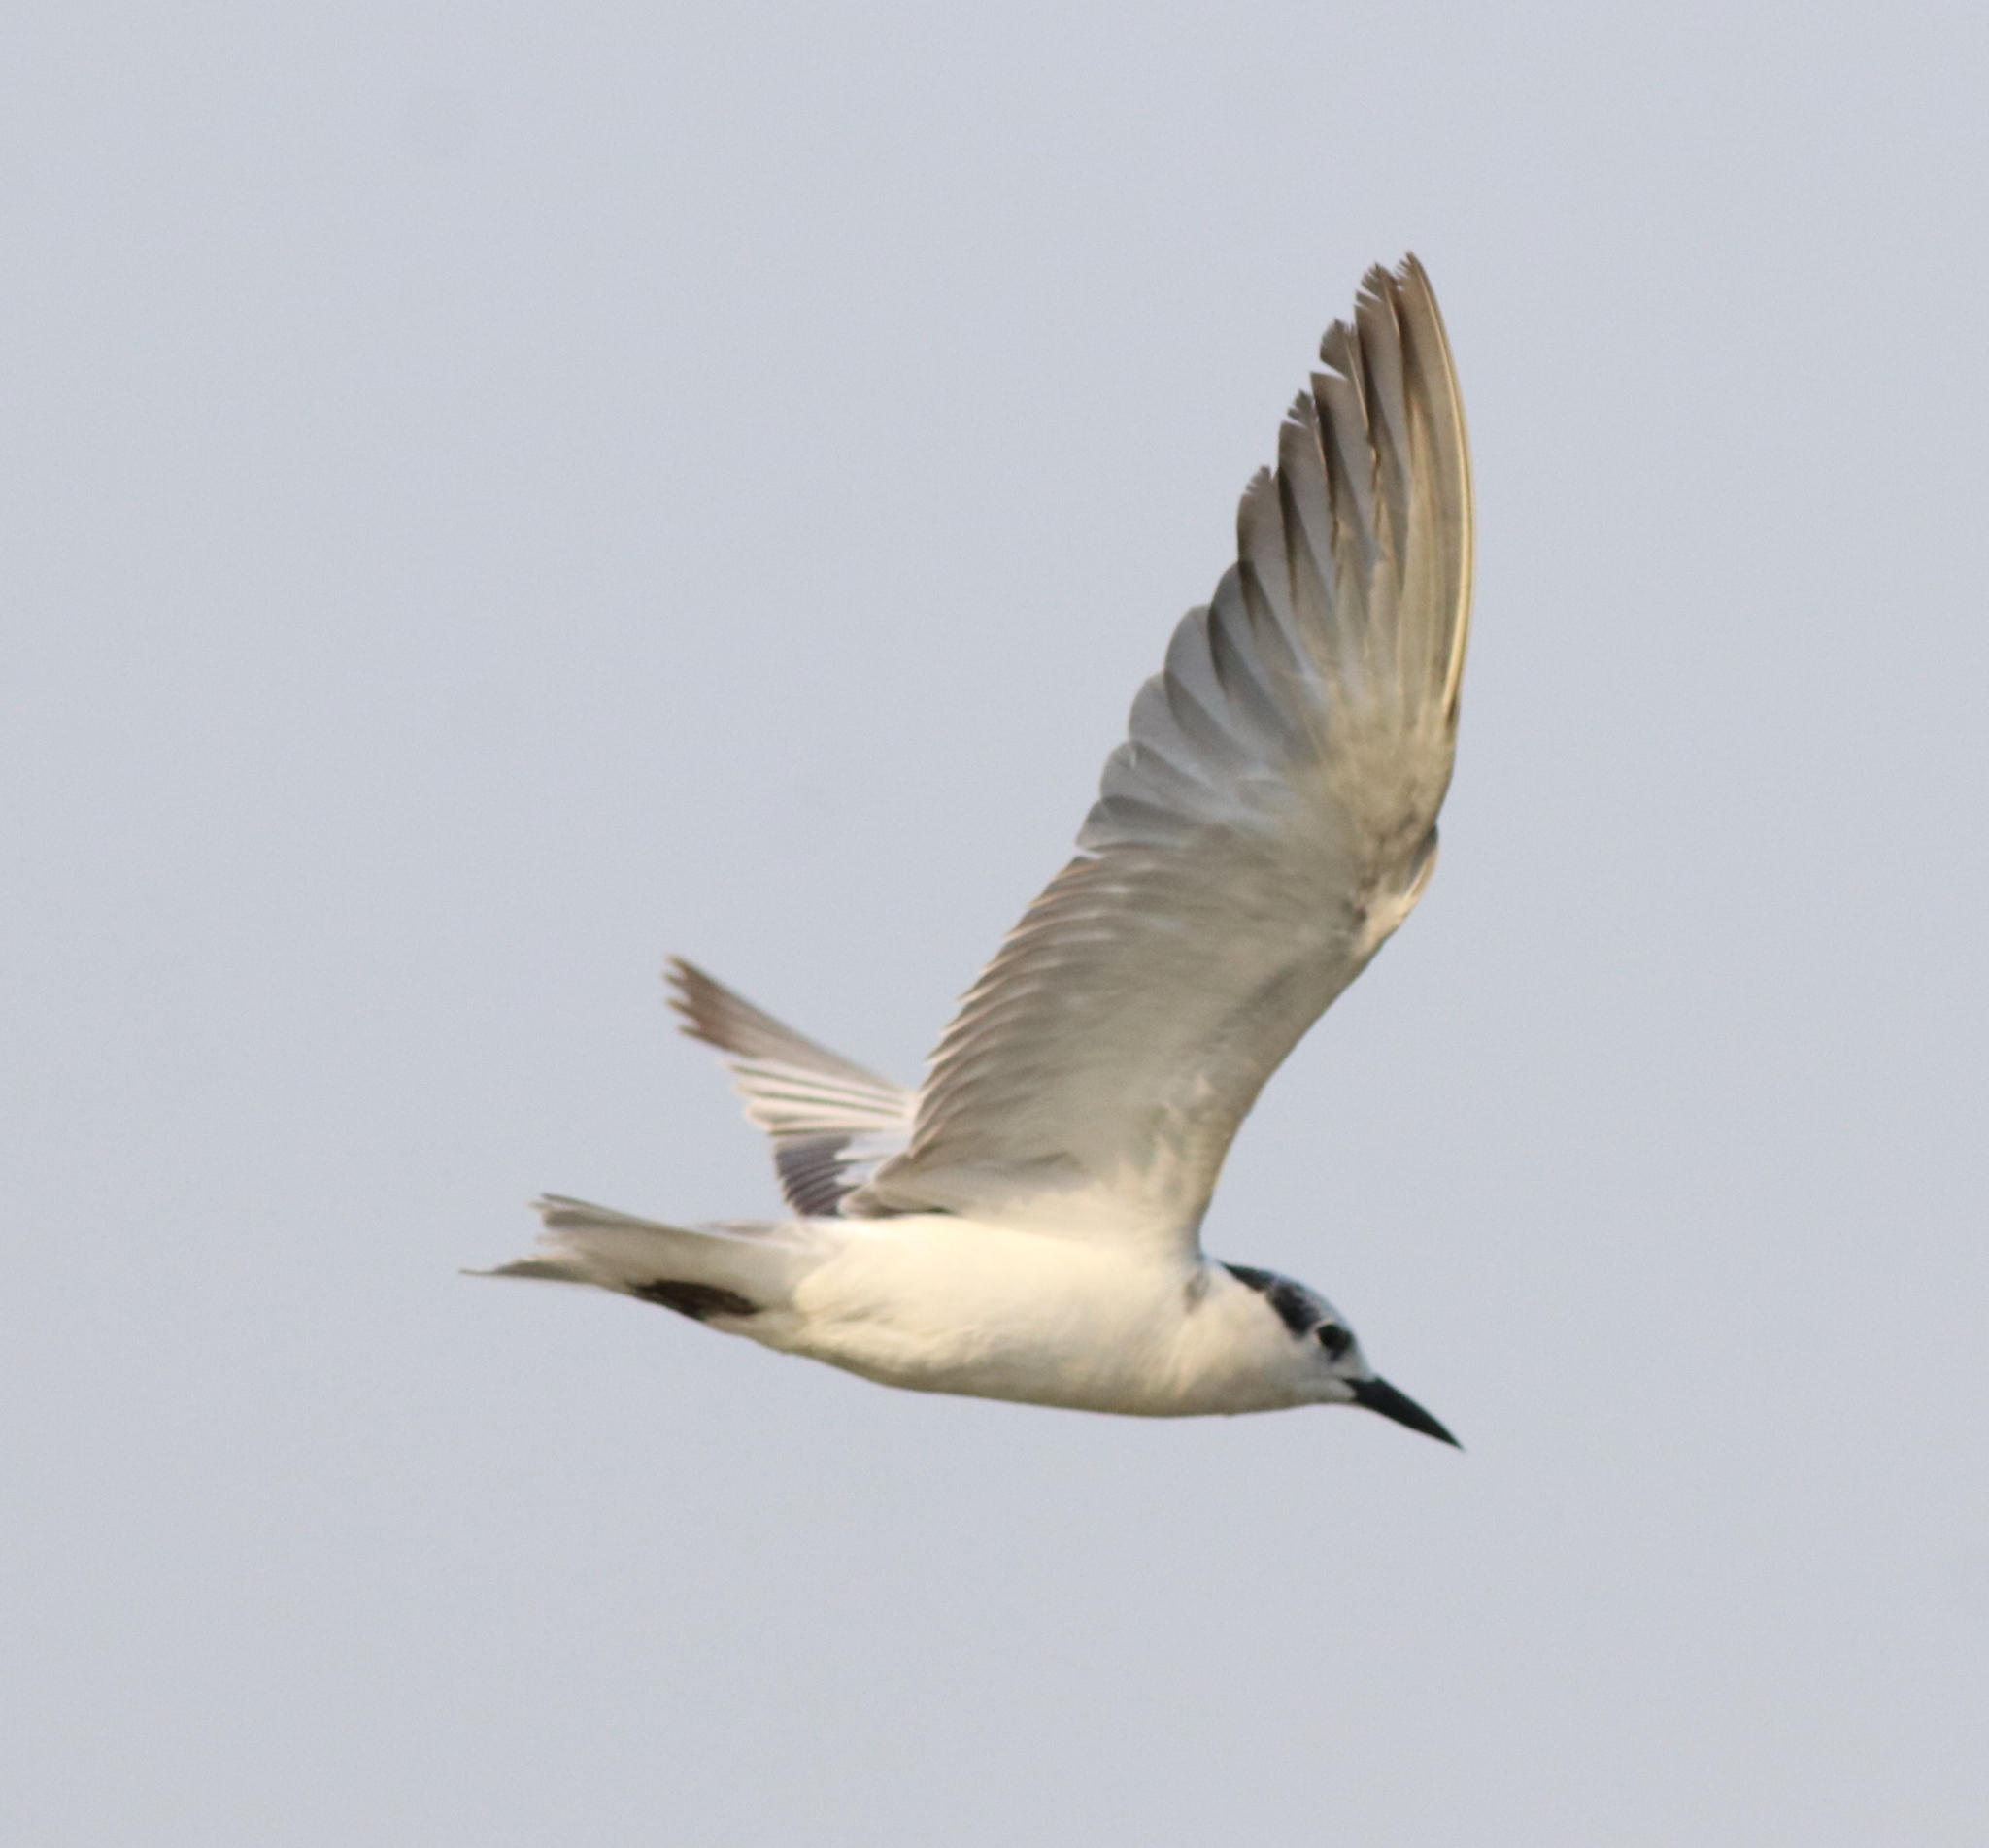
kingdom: Animalia
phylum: Chordata
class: Aves
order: Charadriiformes
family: Laridae
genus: Chlidonias
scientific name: Chlidonias hybrida
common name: Whiskered tern
